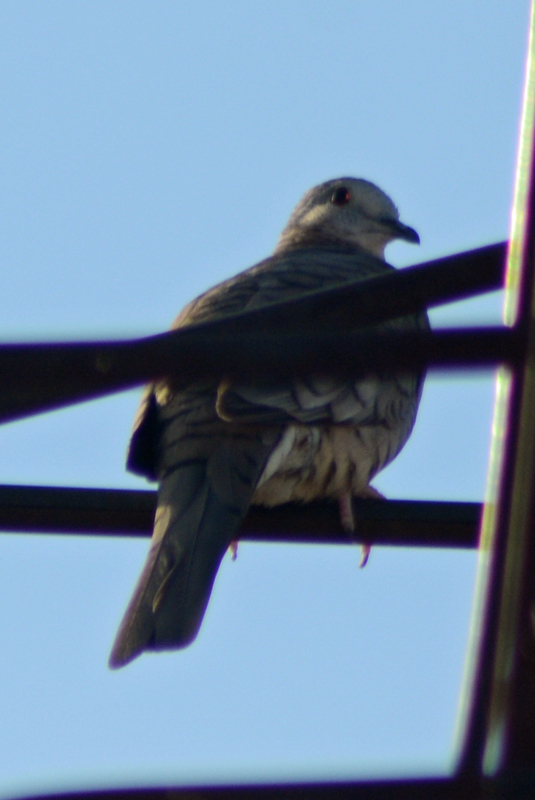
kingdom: Animalia
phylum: Chordata
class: Aves
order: Columbiformes
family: Columbidae
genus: Columbina
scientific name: Columbina inca
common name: Inca dove
